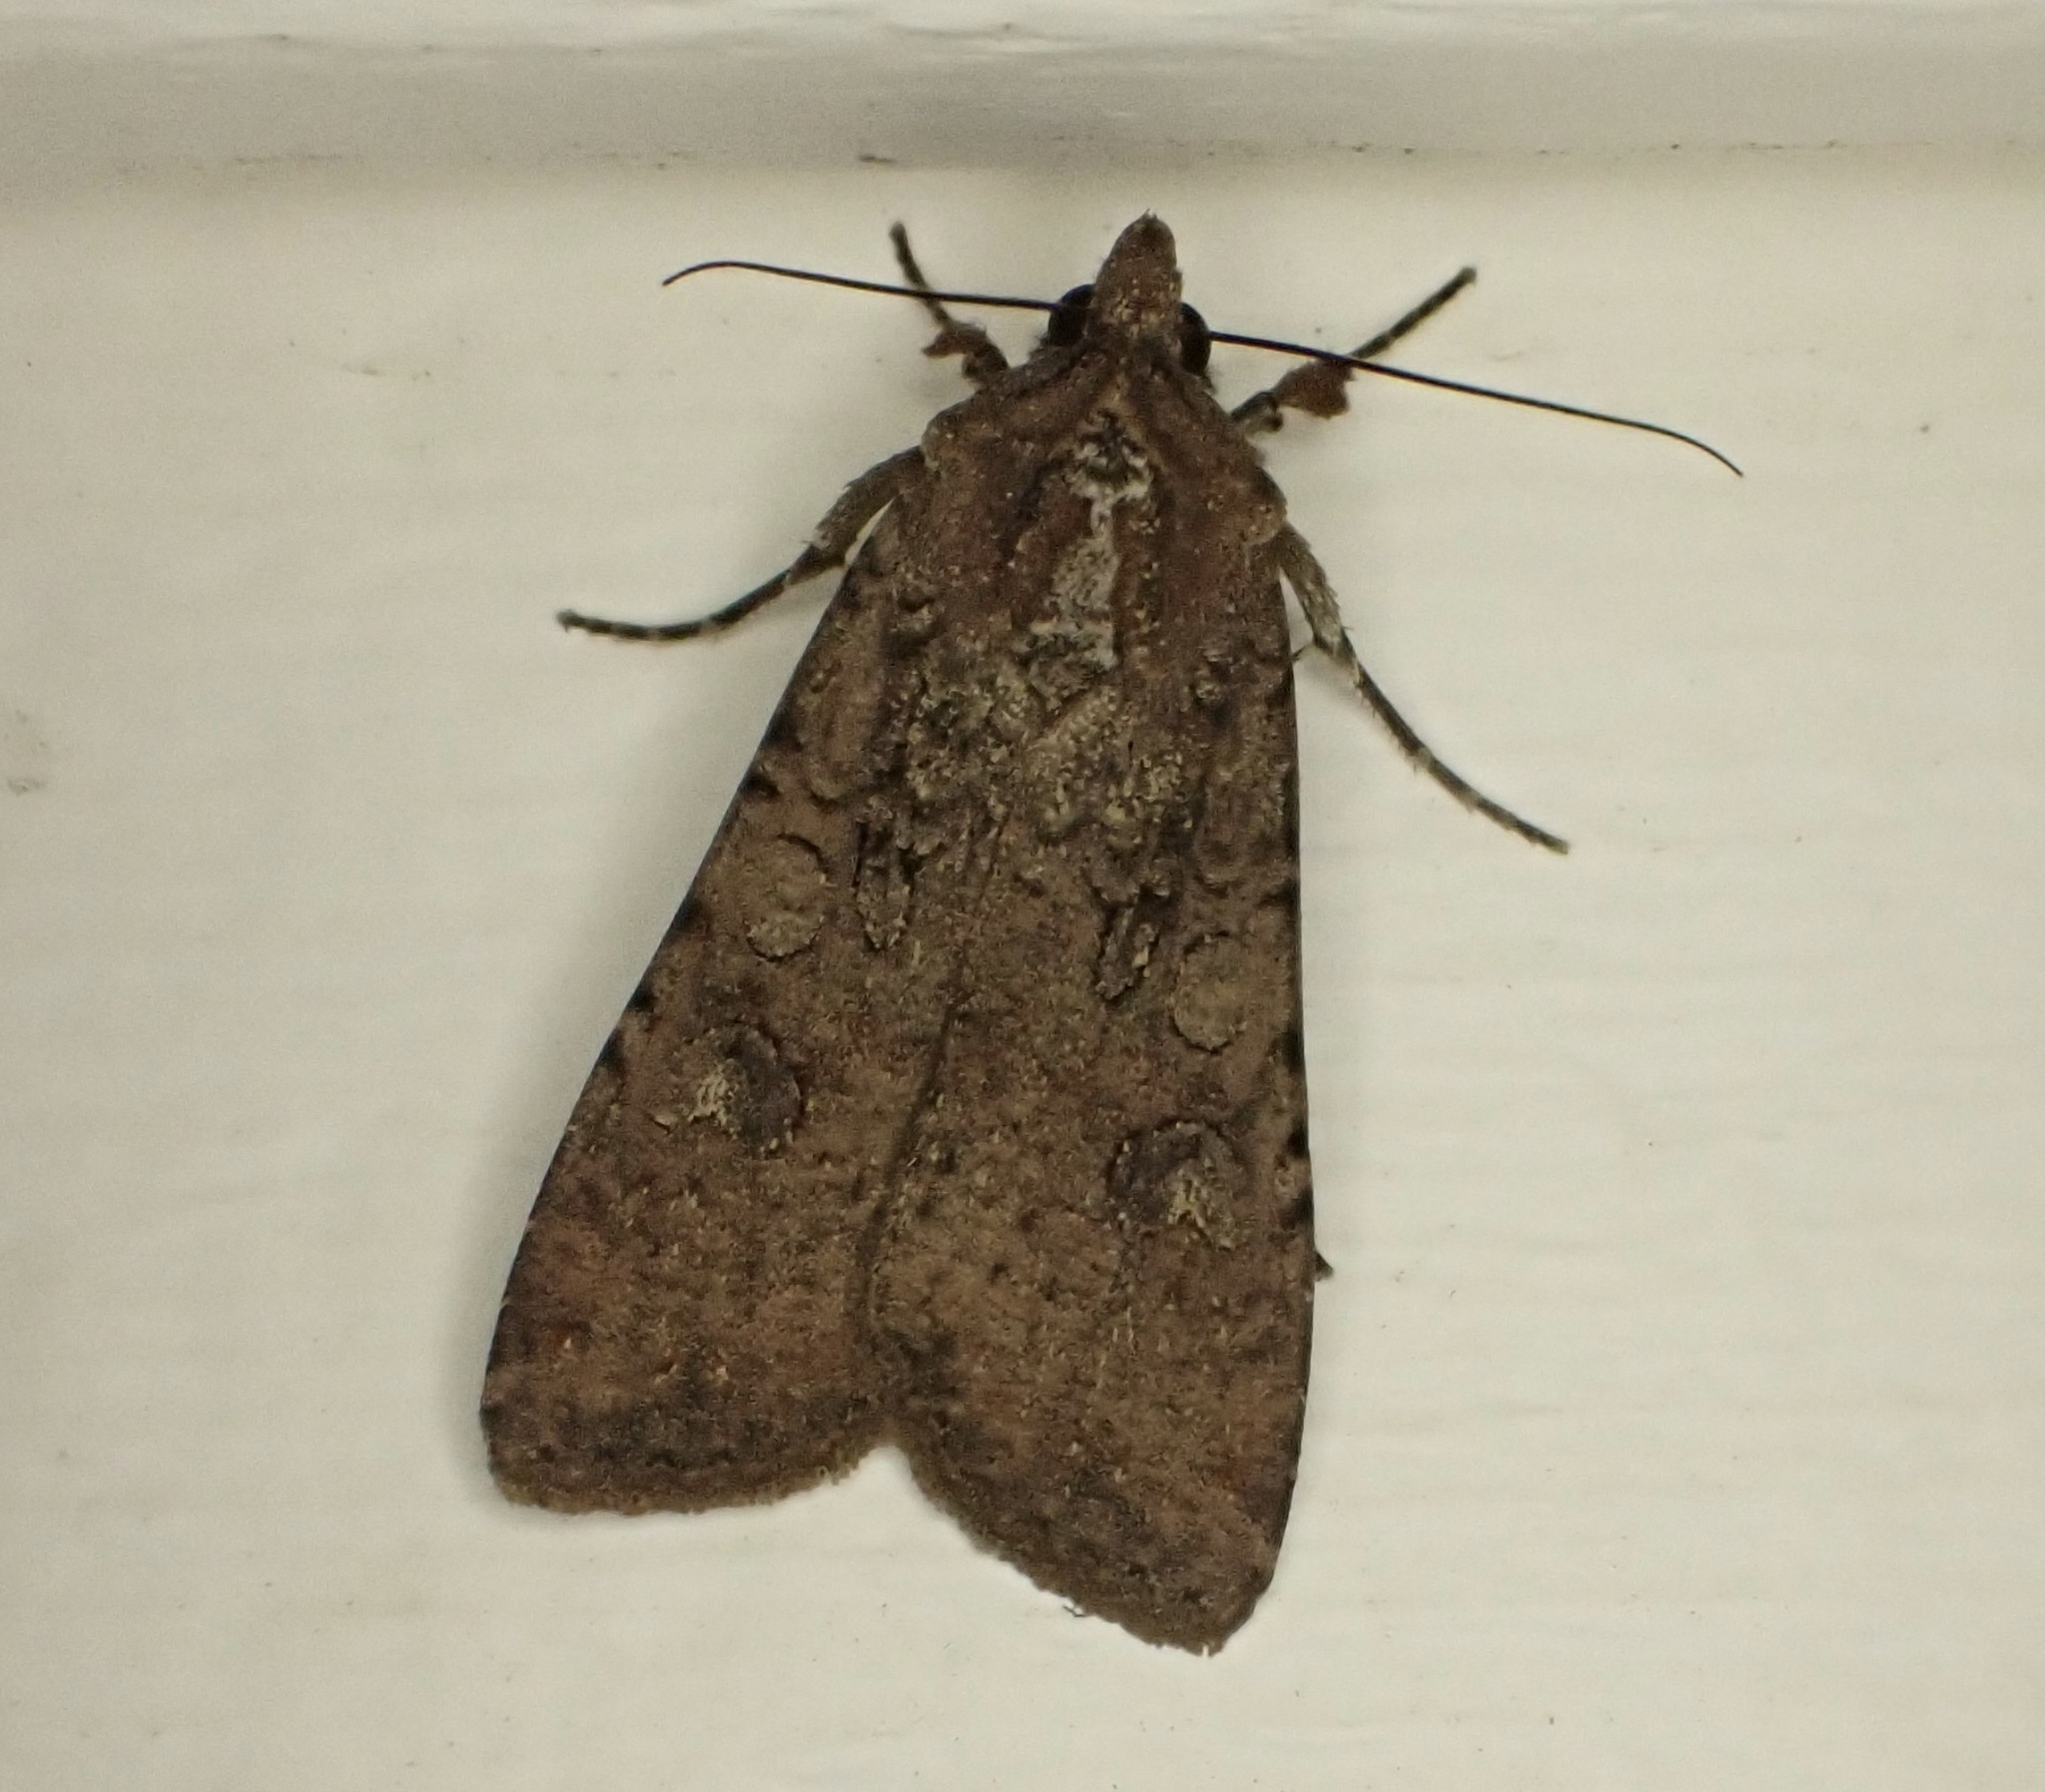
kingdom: Animalia
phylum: Arthropoda
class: Insecta
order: Lepidoptera
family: Noctuidae
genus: Peridroma
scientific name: Peridroma saucia
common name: Pearly underwing
